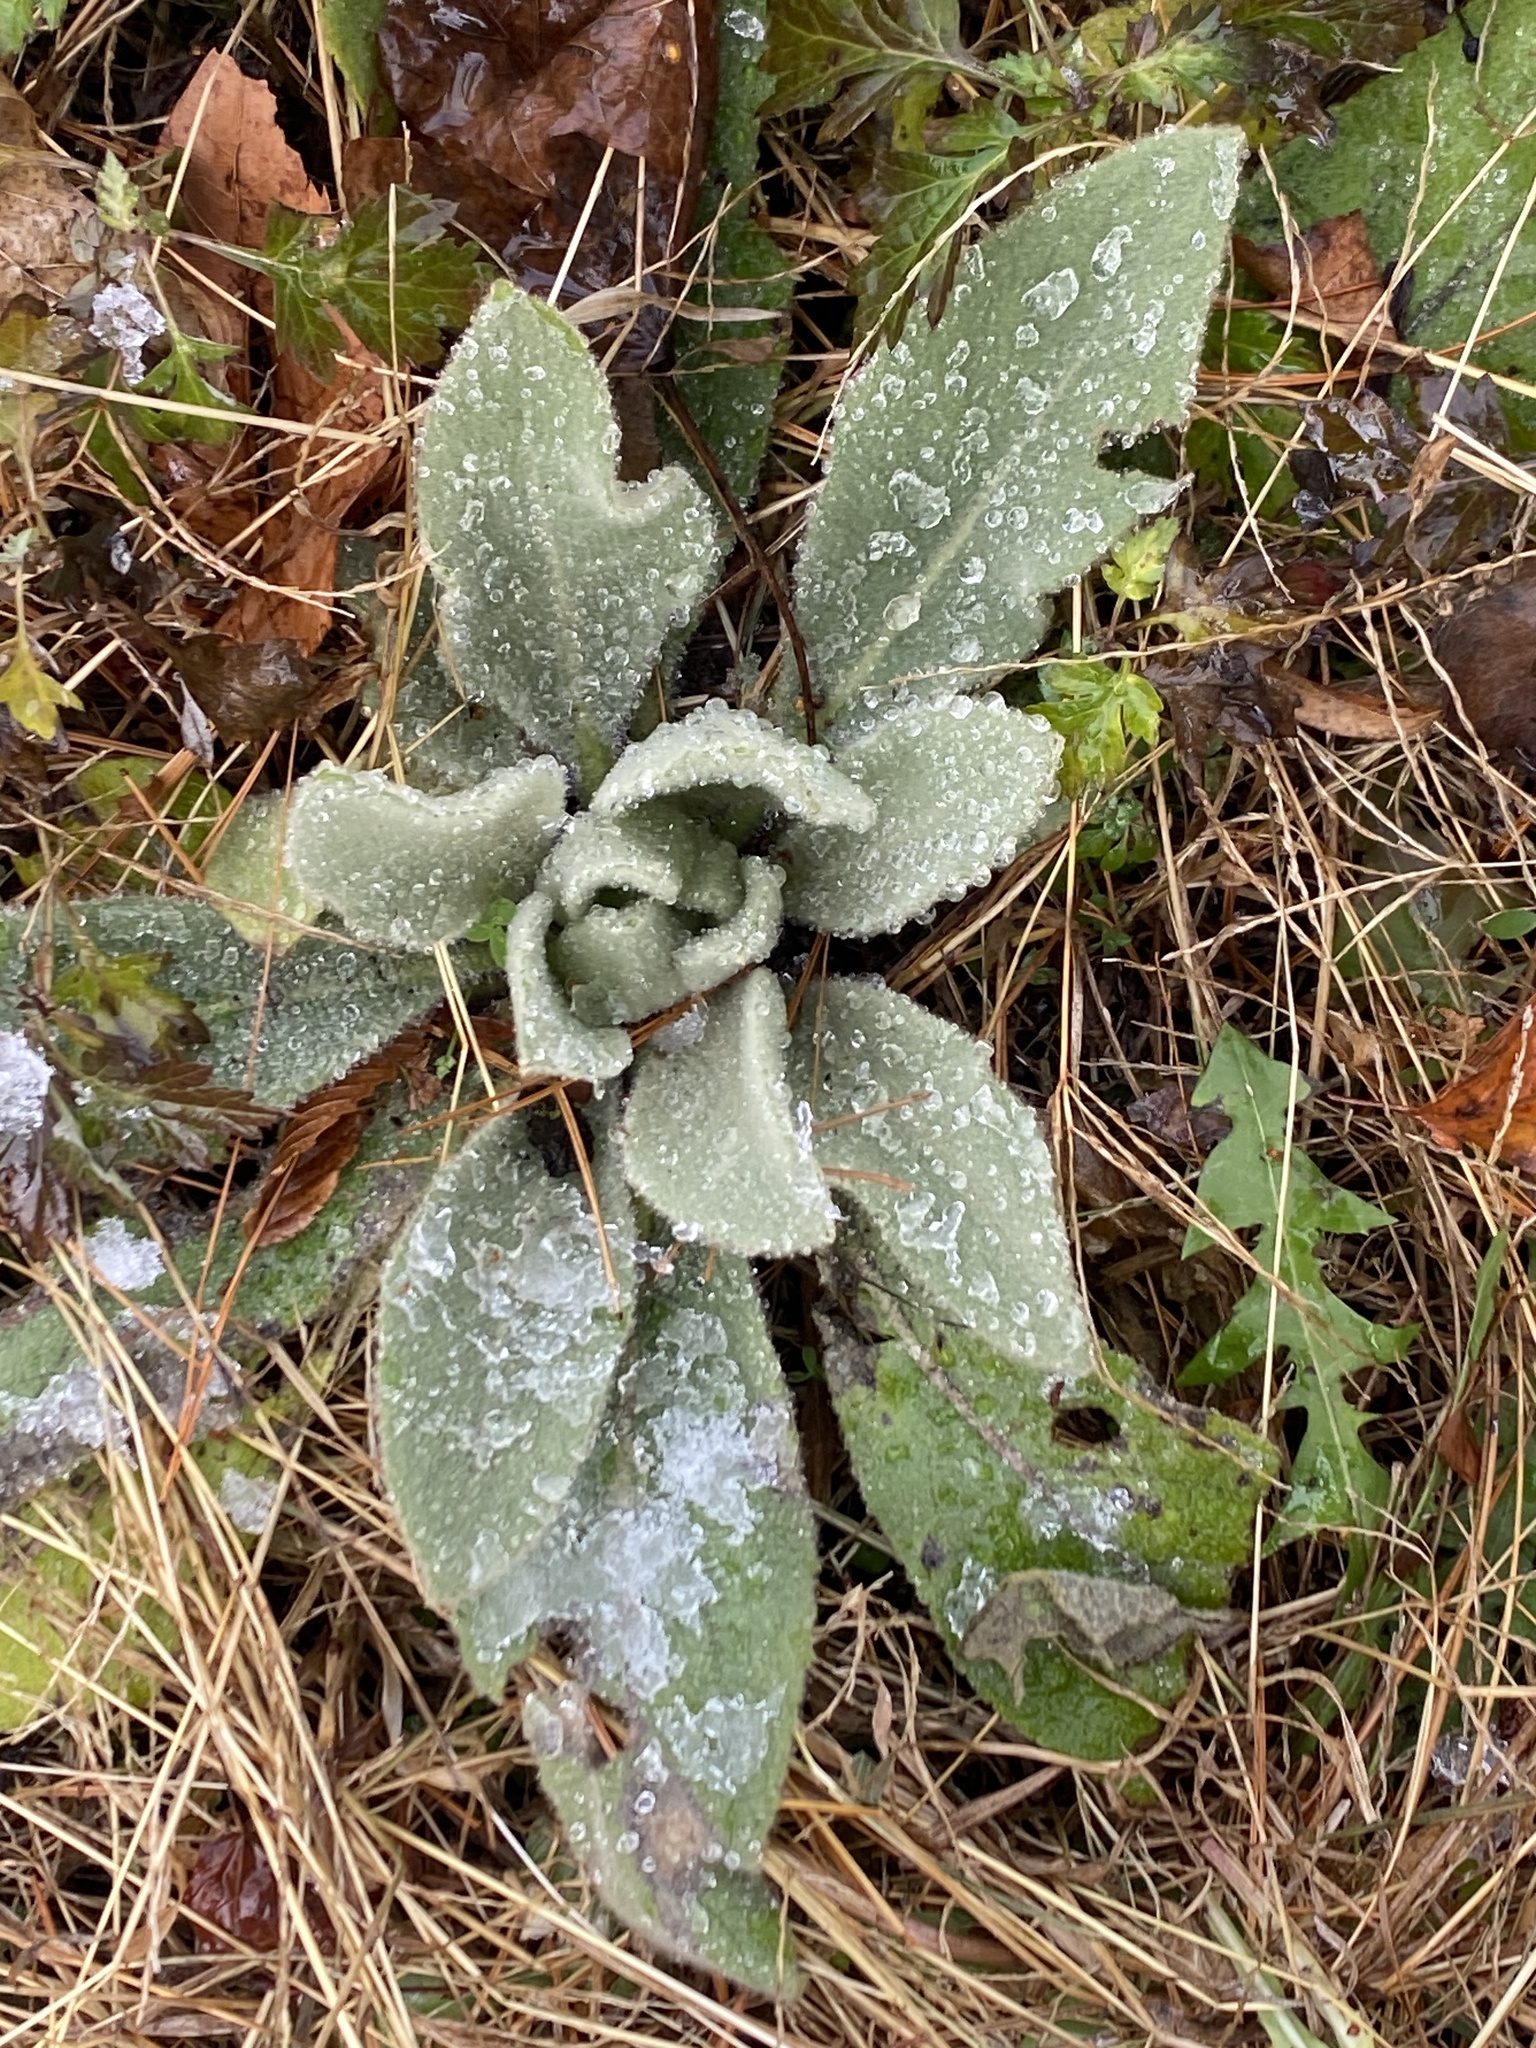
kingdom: Plantae
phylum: Tracheophyta
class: Magnoliopsida
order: Lamiales
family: Scrophulariaceae
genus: Verbascum
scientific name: Verbascum thapsus
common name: Common mullein
